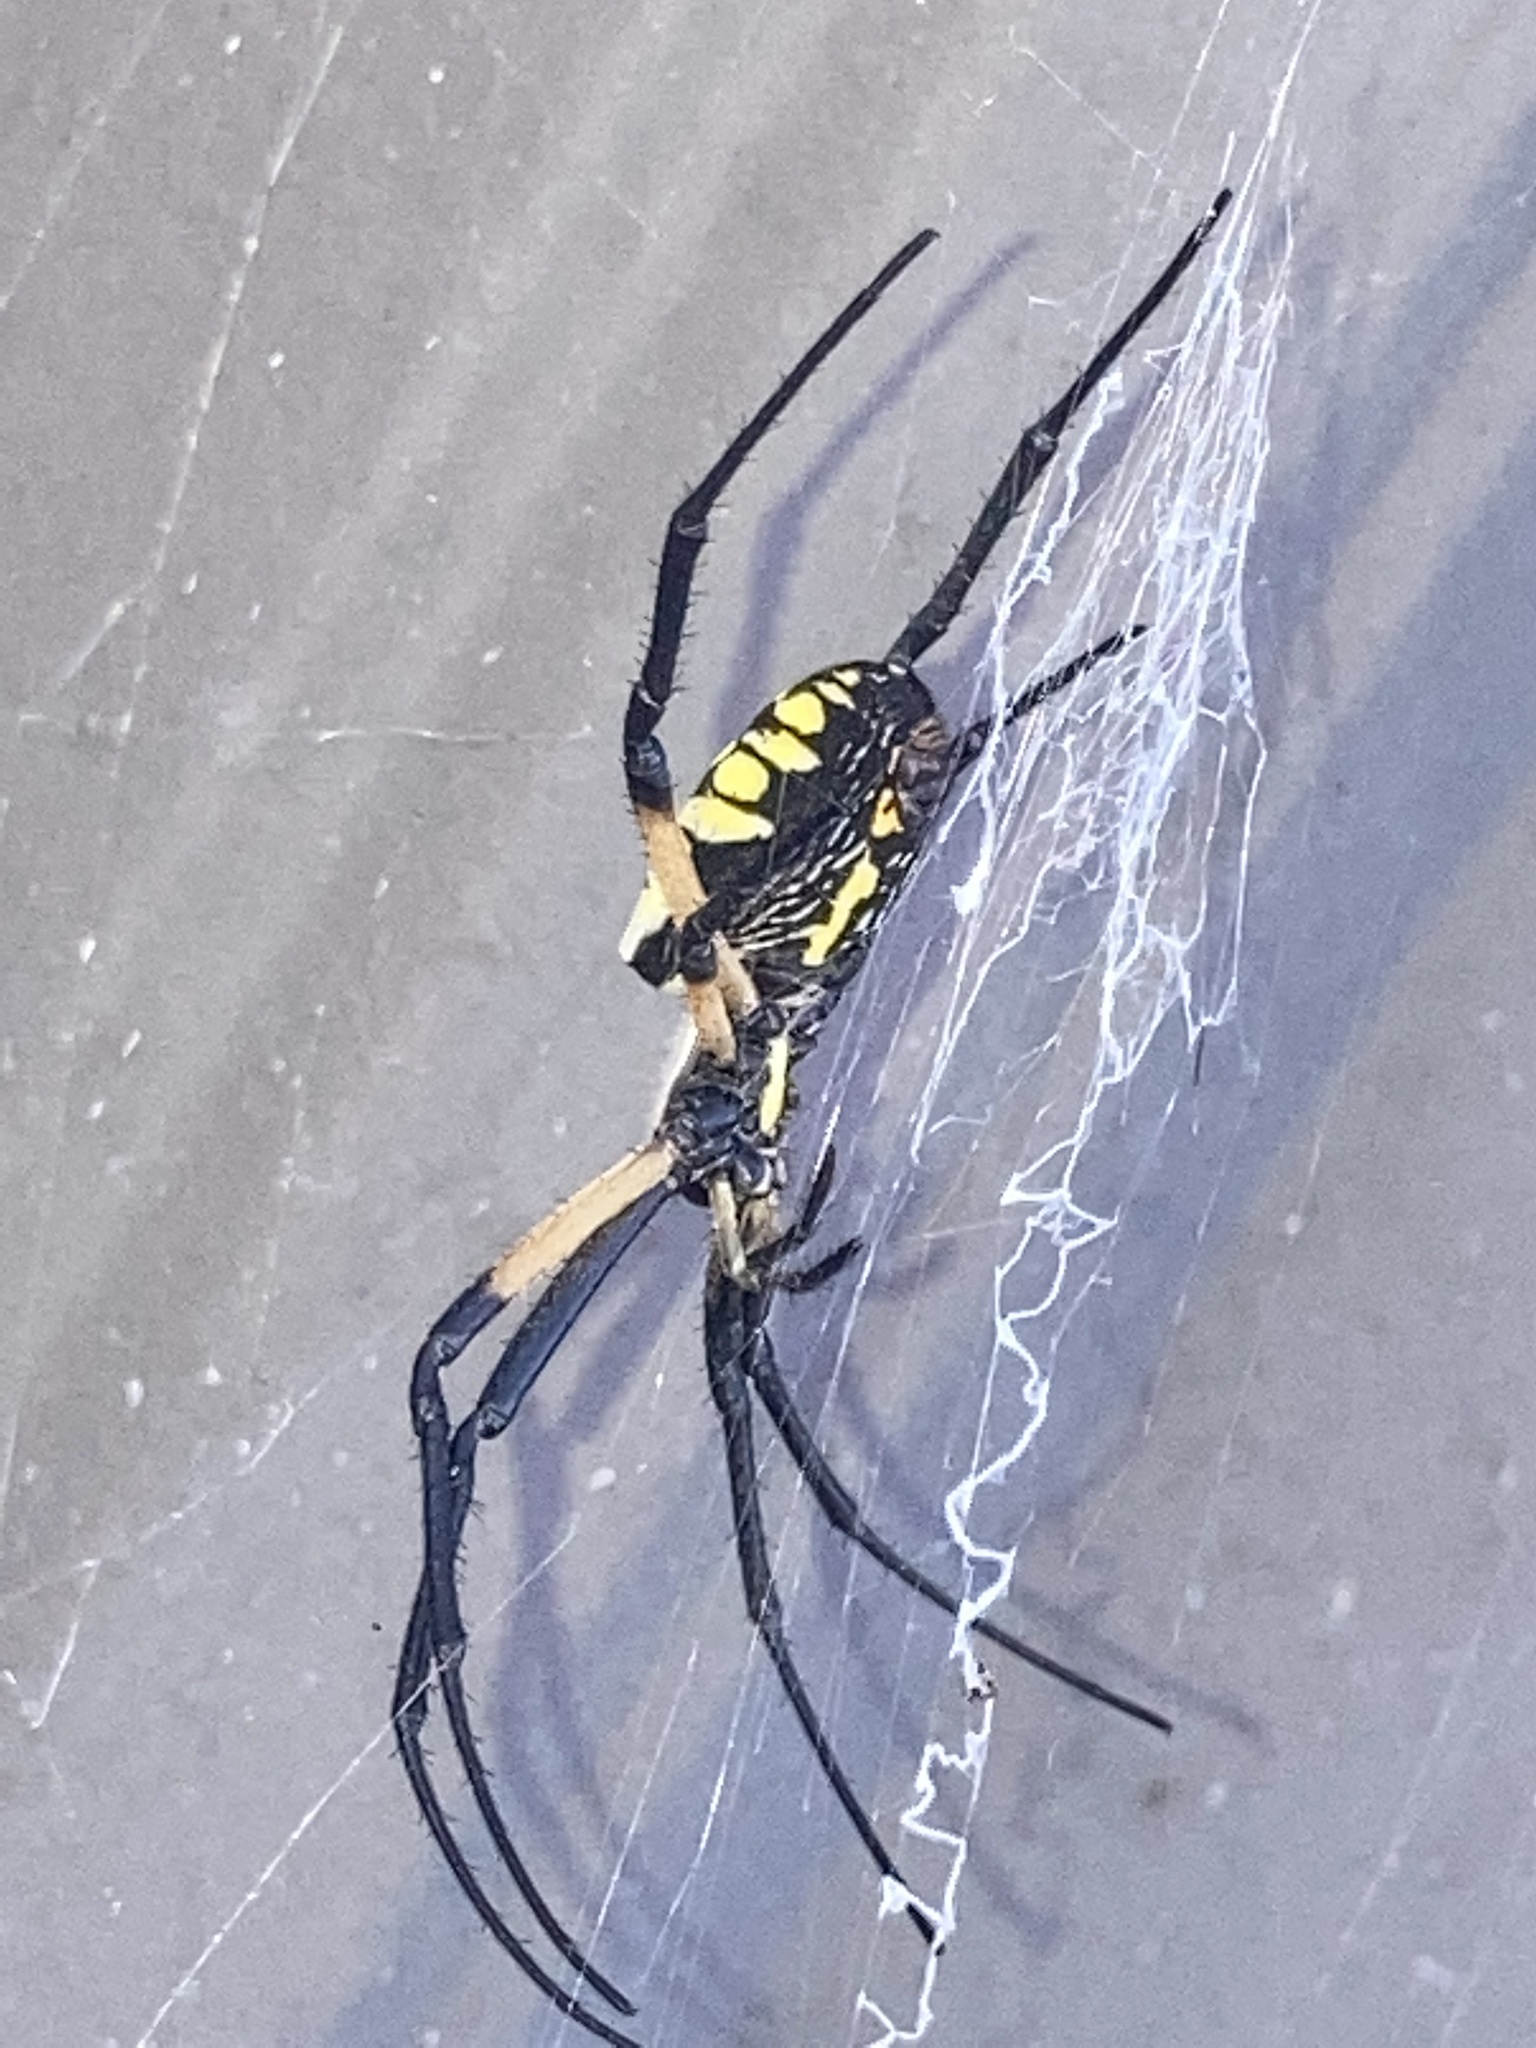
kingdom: Animalia
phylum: Arthropoda
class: Arachnida
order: Araneae
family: Araneidae
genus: Argiope
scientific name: Argiope aurantia
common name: Orb weavers
